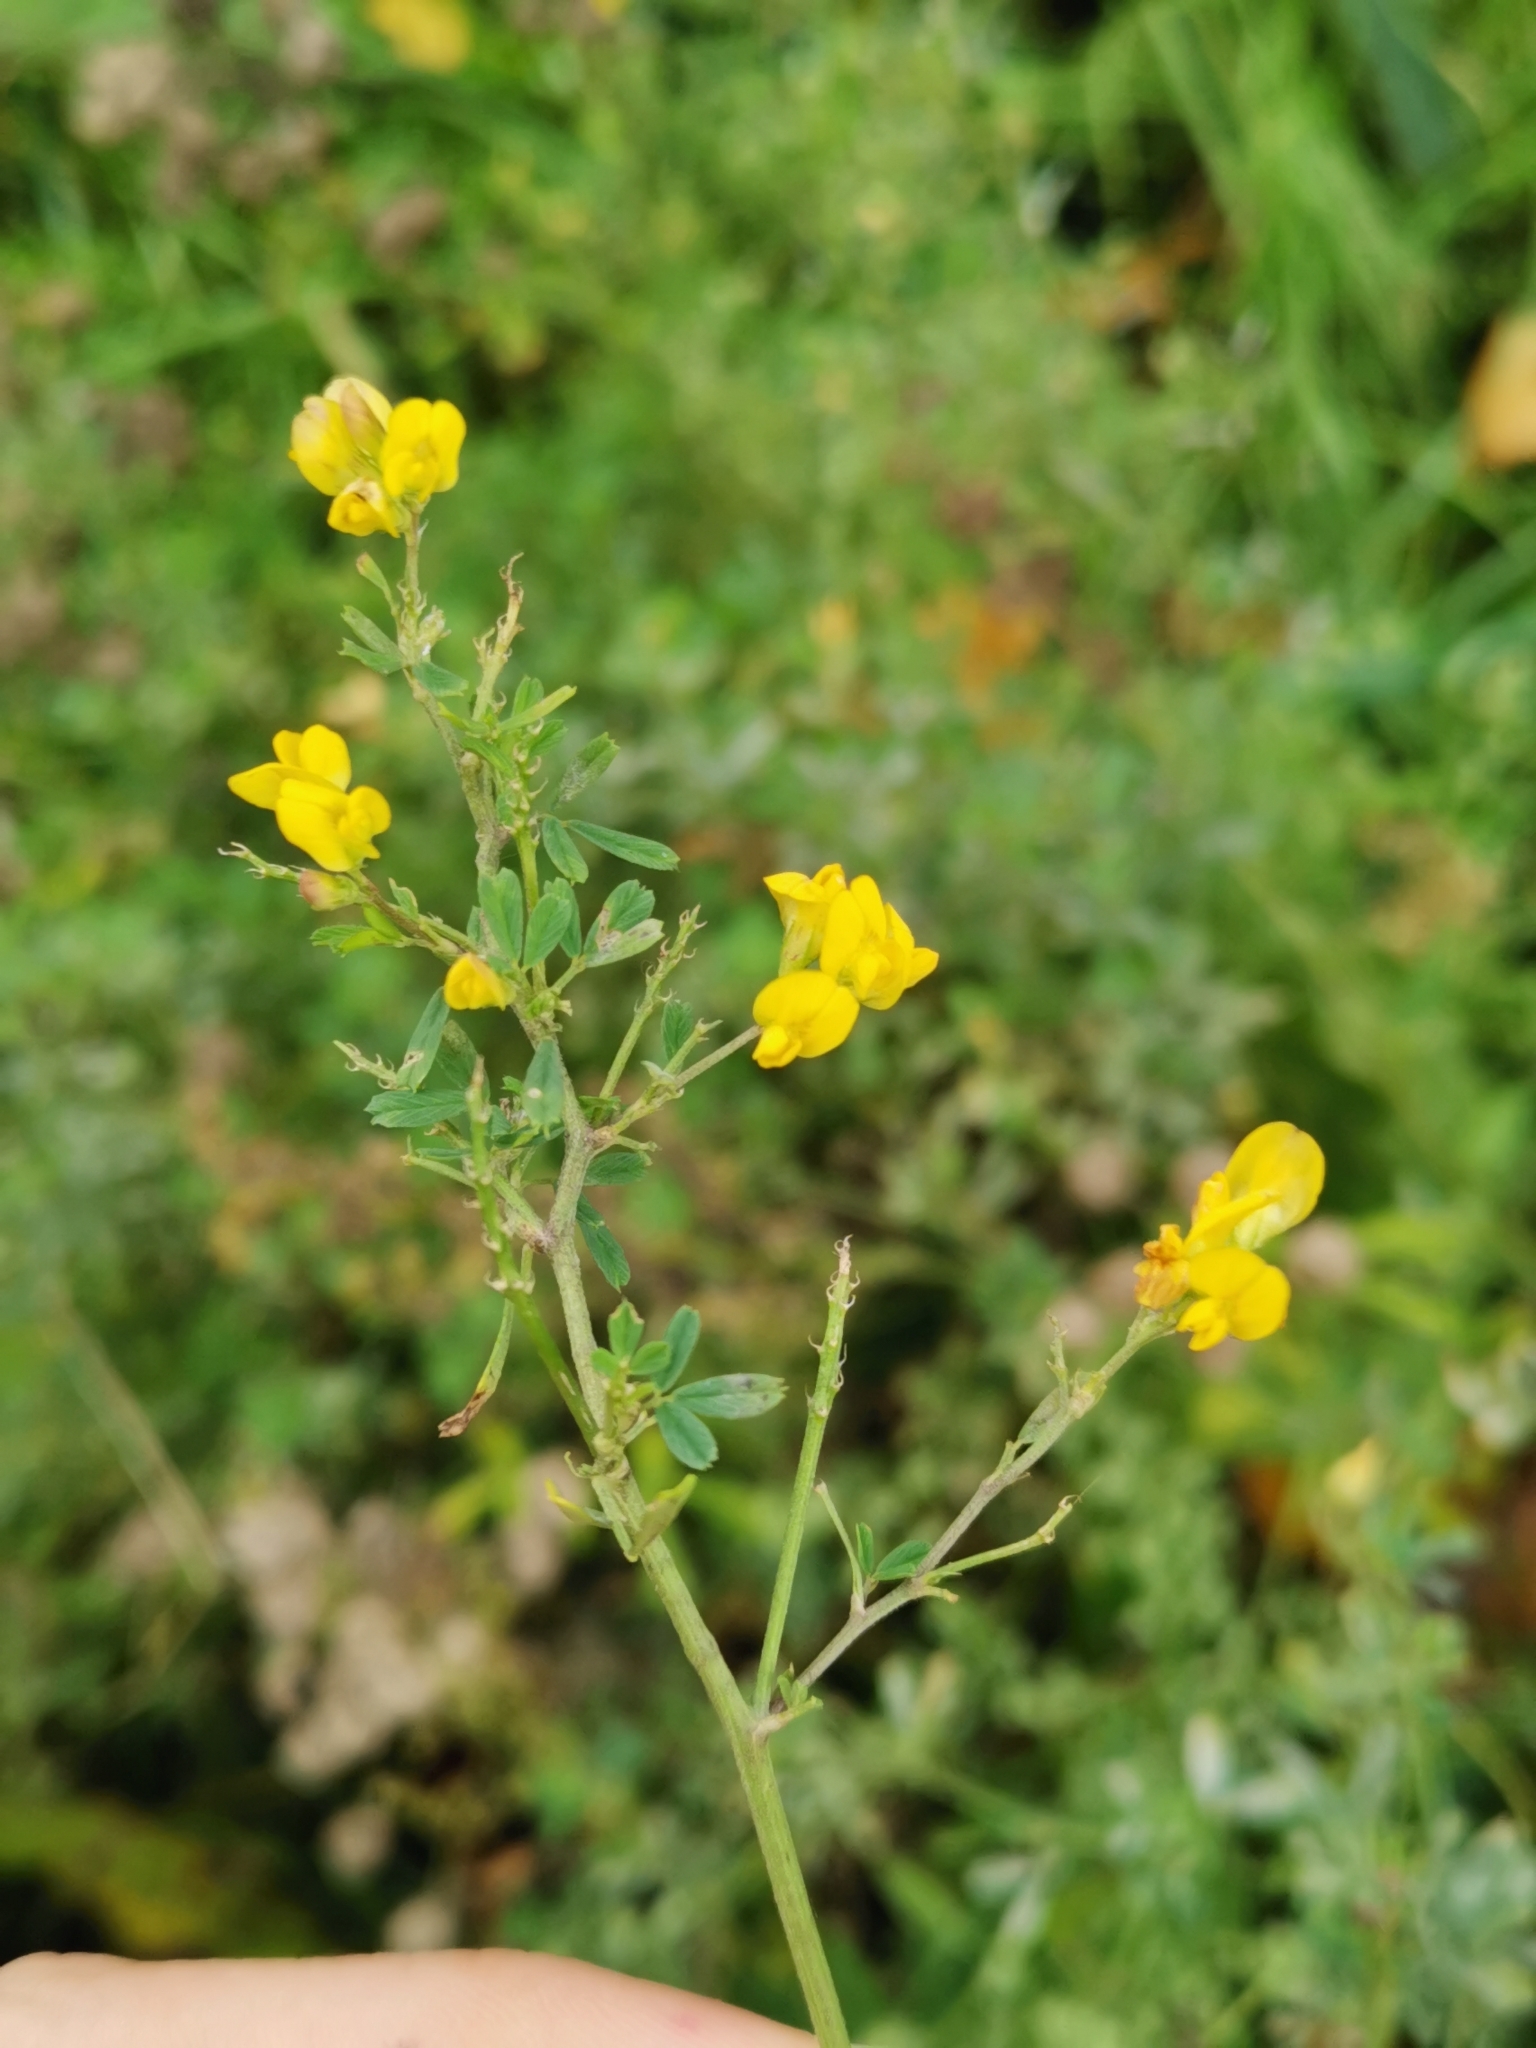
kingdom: Plantae
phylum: Tracheophyta
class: Magnoliopsida
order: Fabales
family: Fabaceae
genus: Medicago
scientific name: Medicago falcata
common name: Sickle medick
